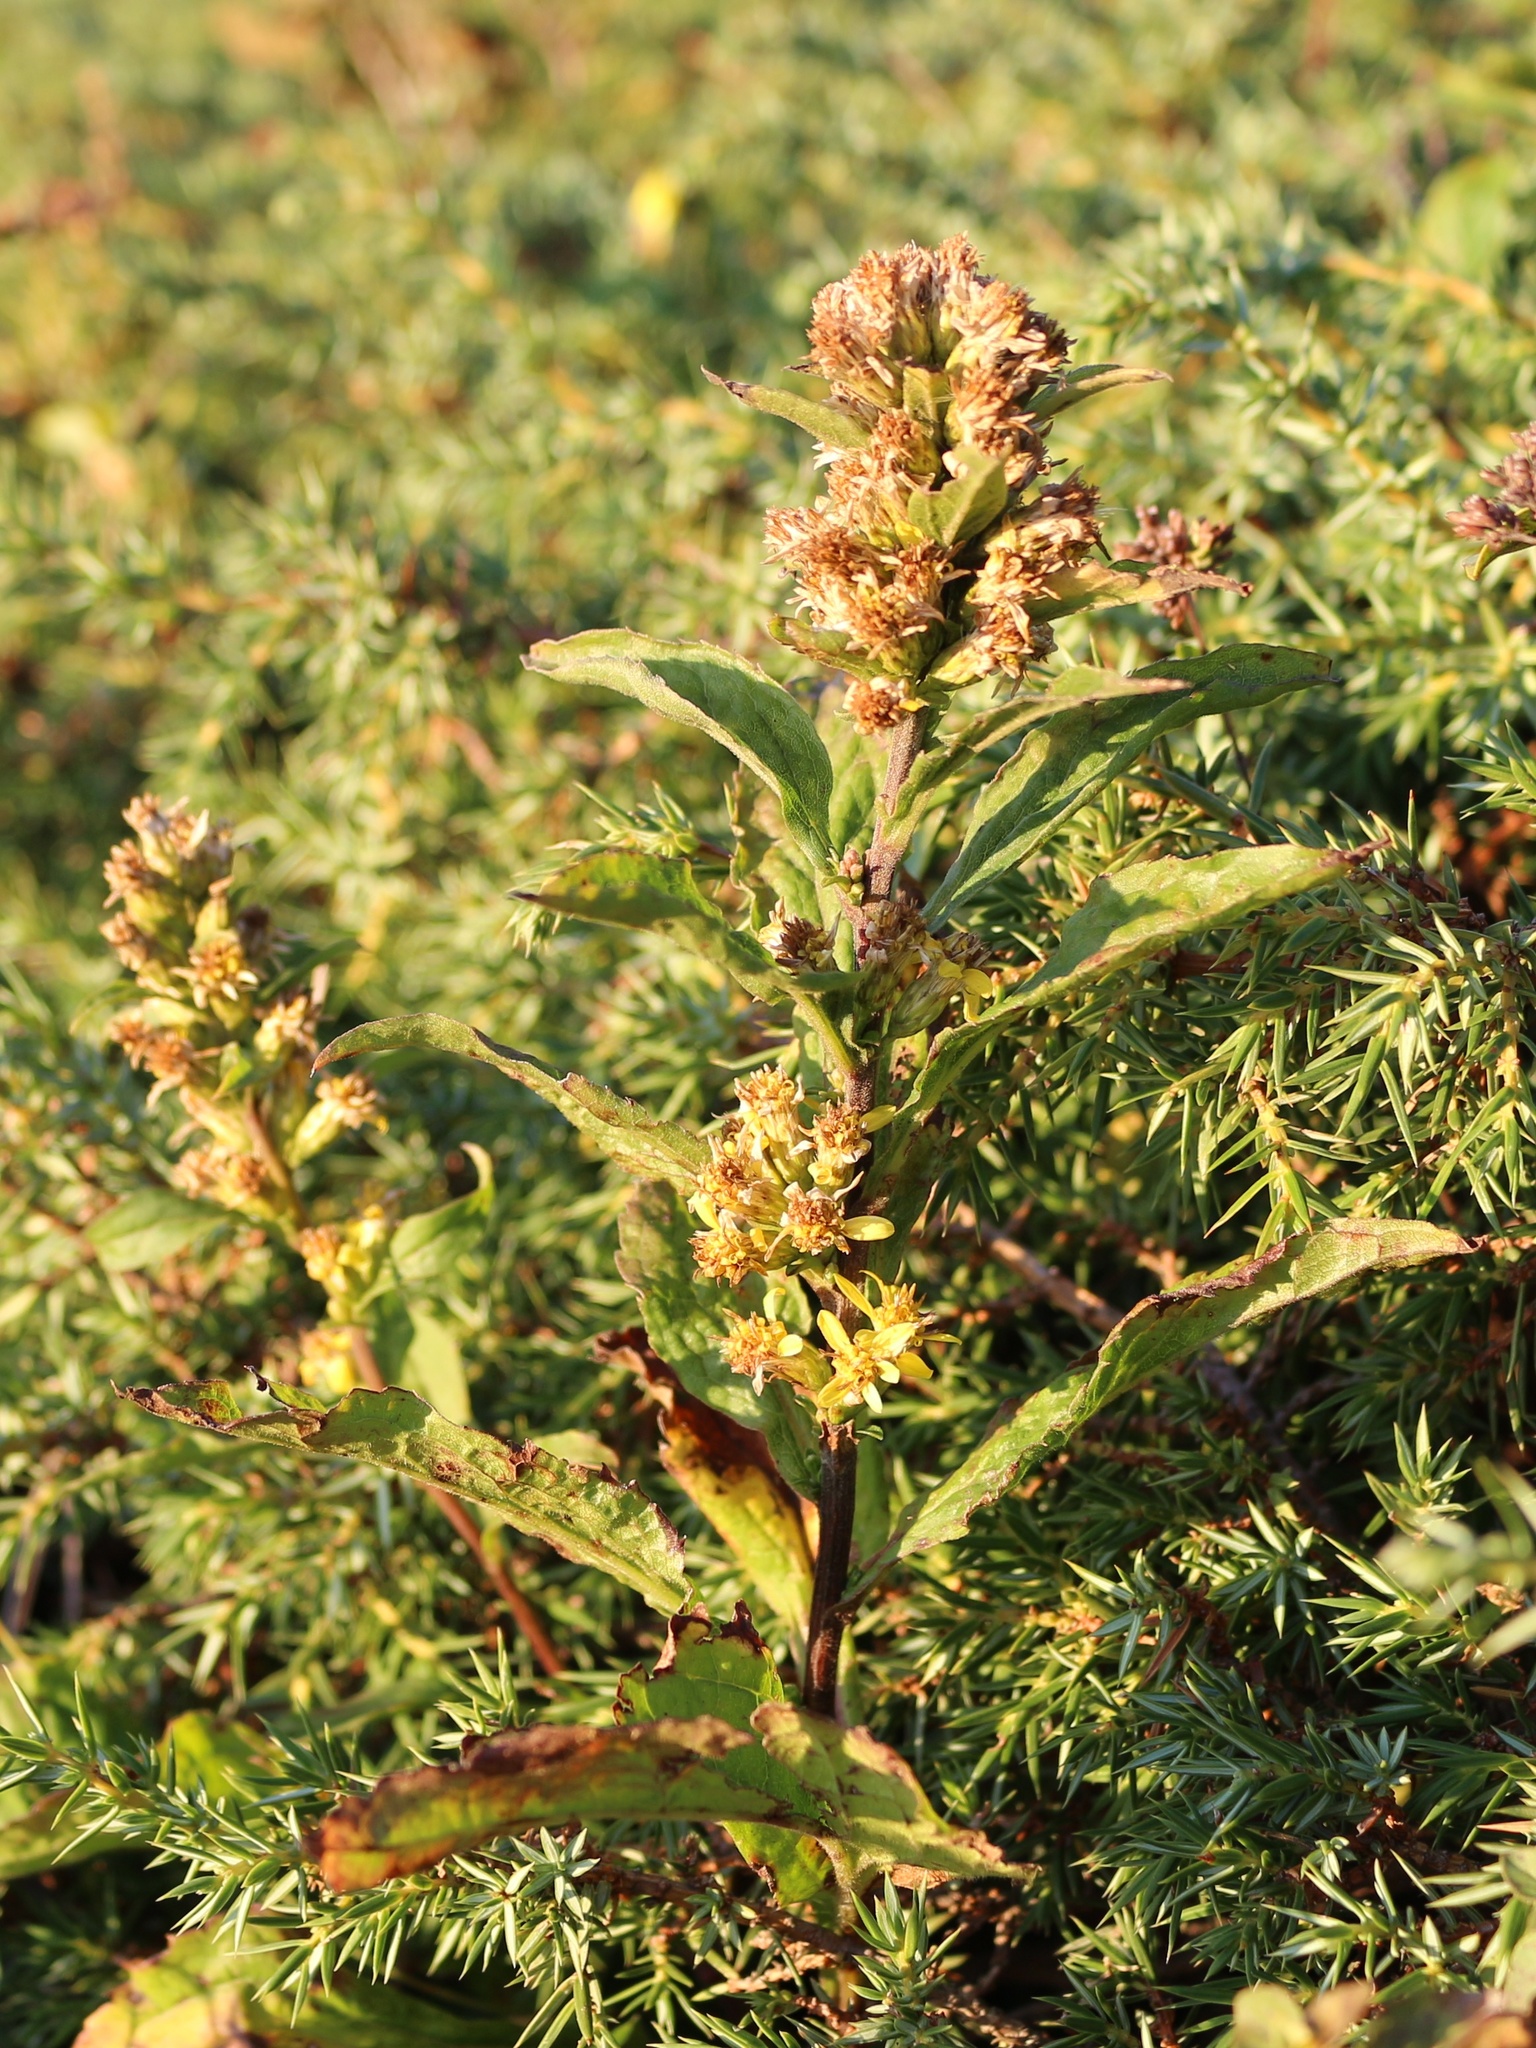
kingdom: Plantae
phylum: Tracheophyta
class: Magnoliopsida
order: Asterales
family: Asteraceae
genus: Solidago
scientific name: Solidago virgaurea
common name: Goldenrod
